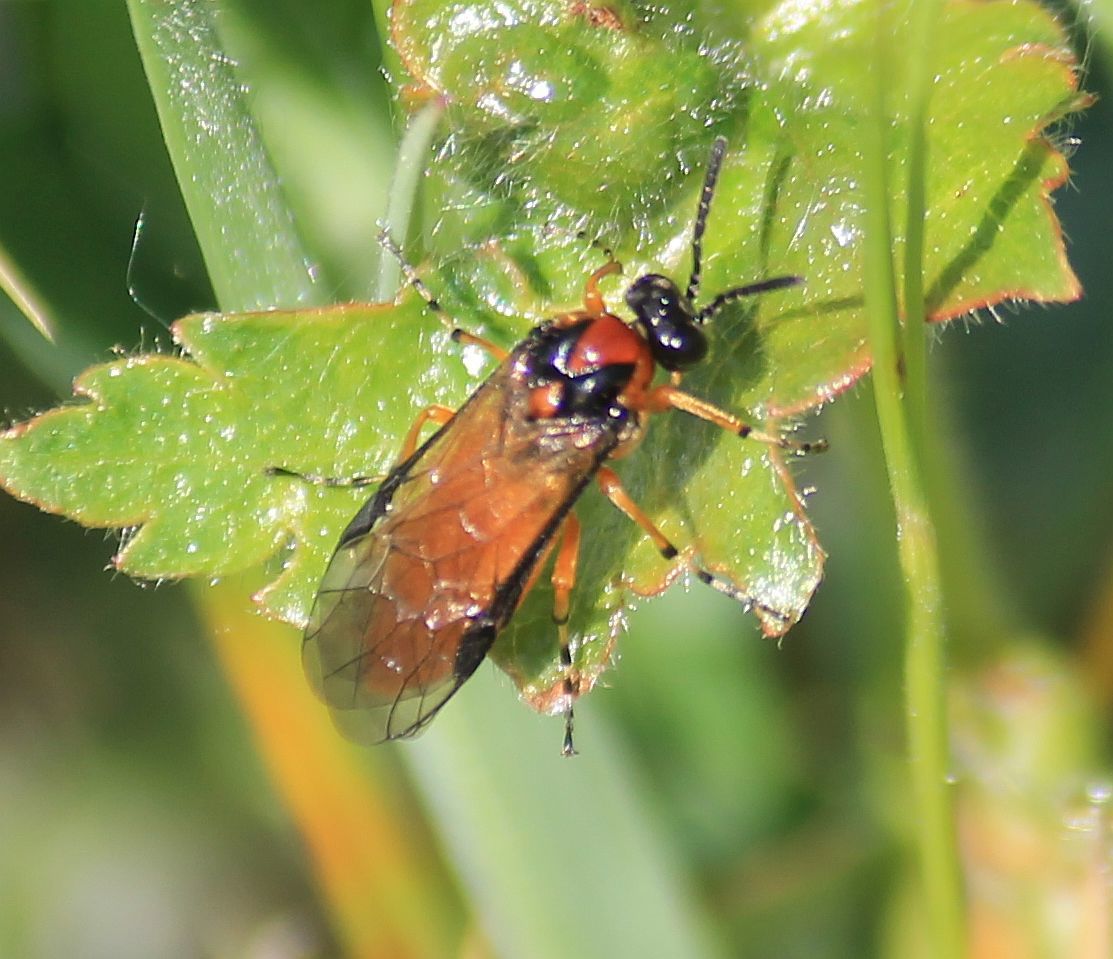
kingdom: Animalia
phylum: Arthropoda
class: Insecta
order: Hymenoptera
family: Tenthredinidae
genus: Athalia
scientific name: Athalia rosae
